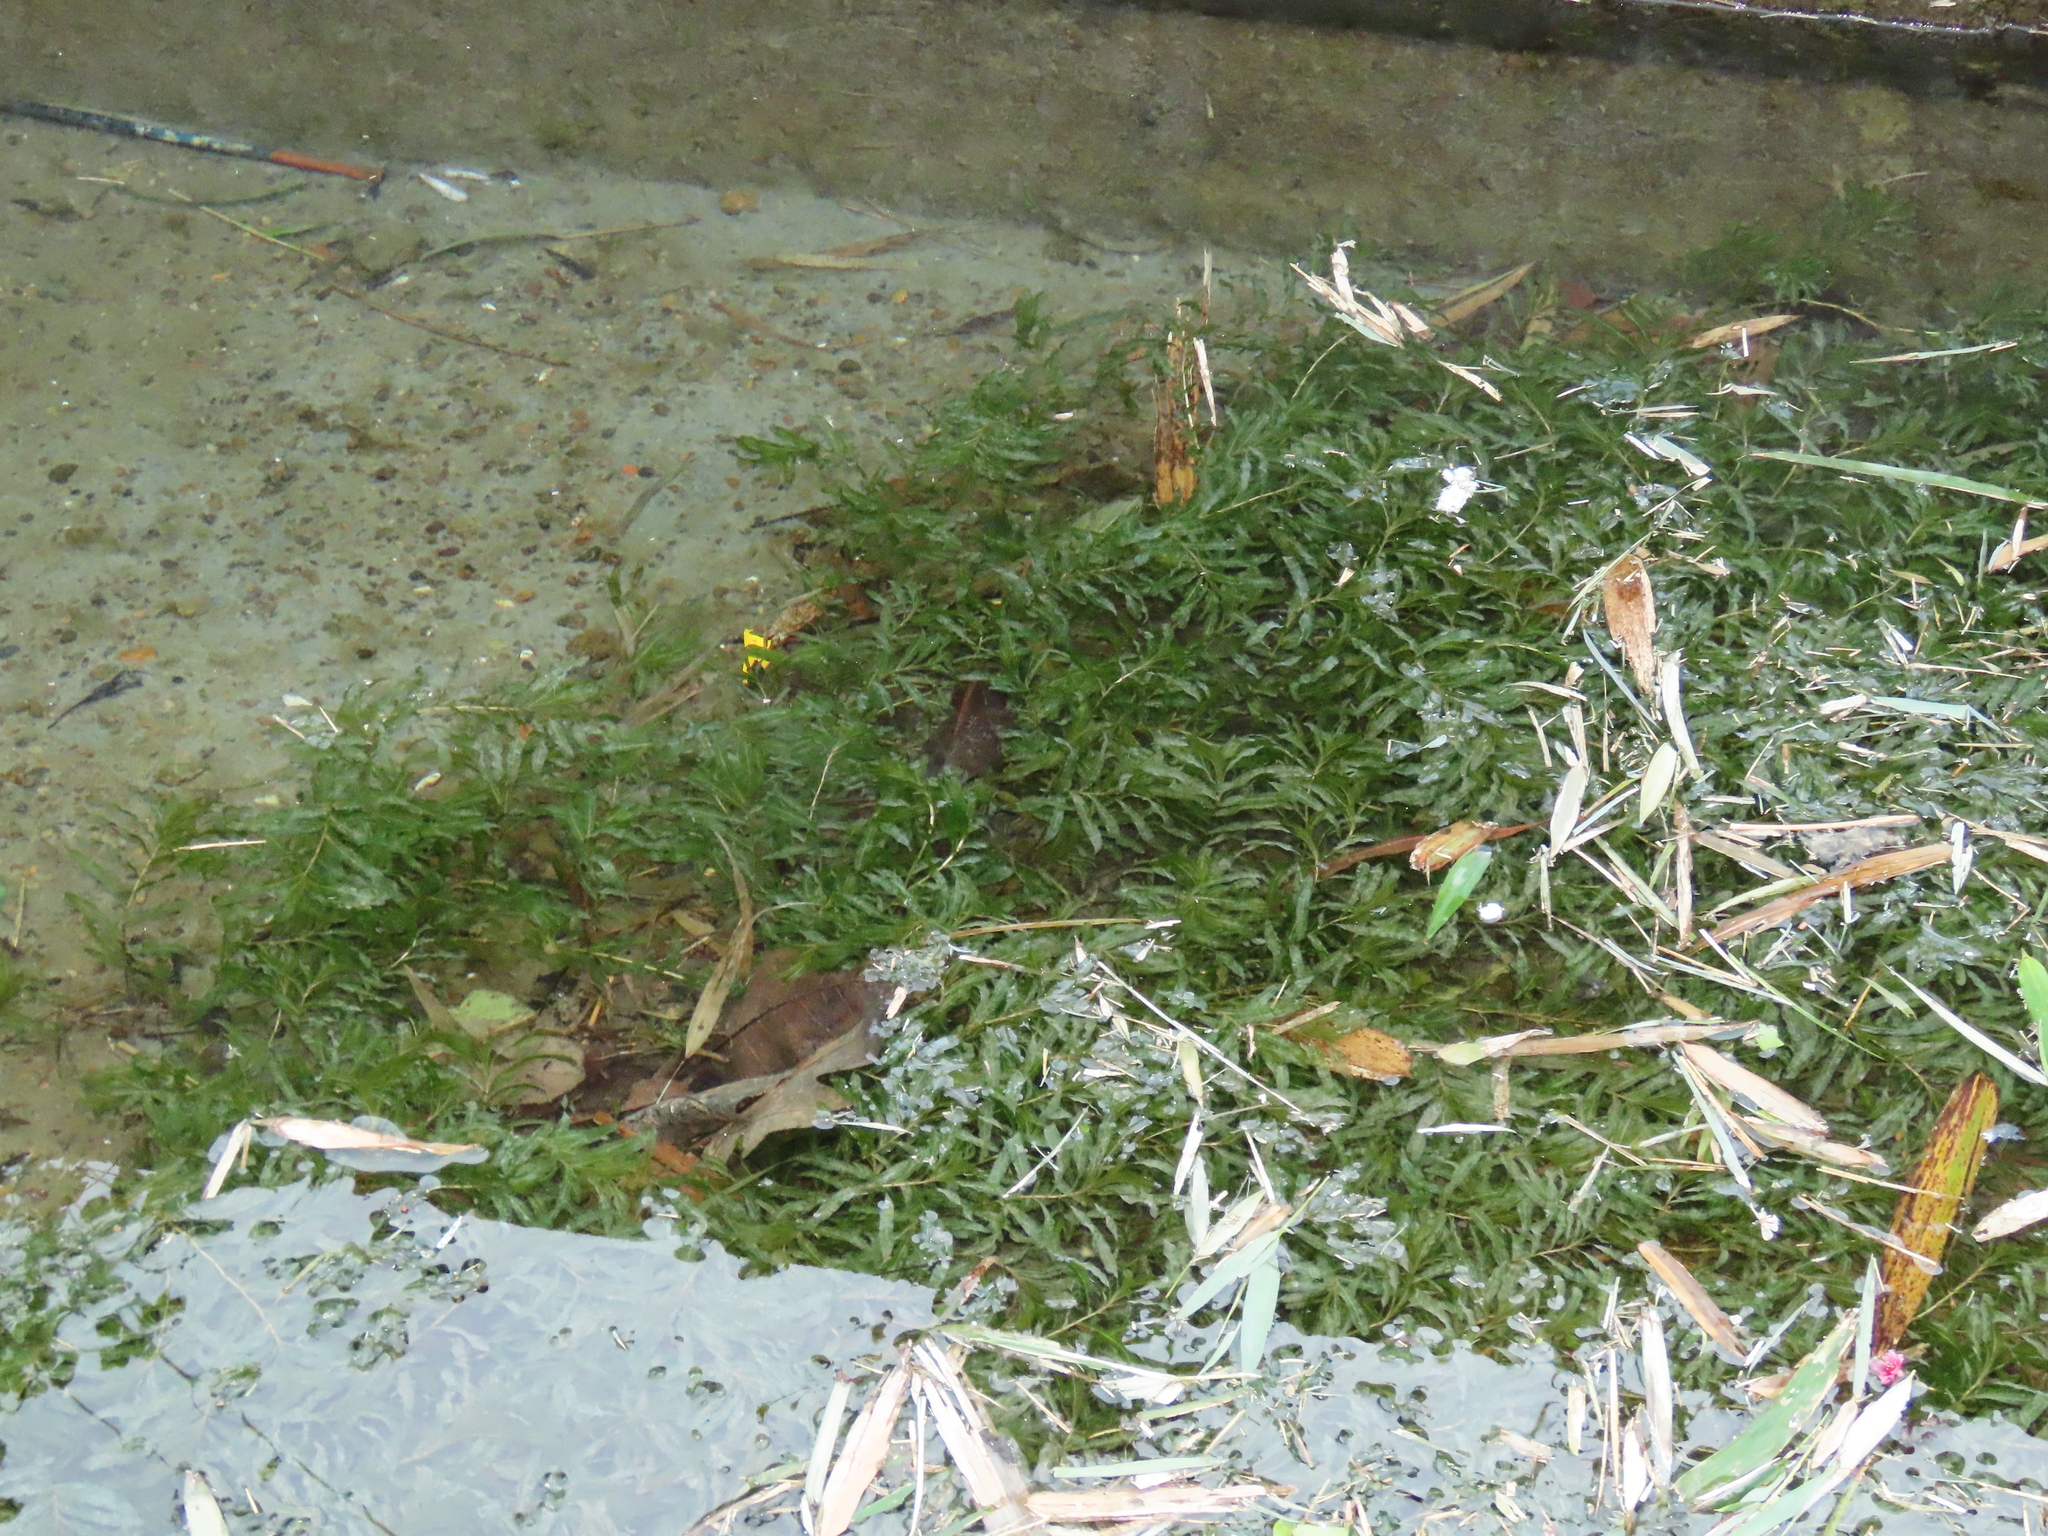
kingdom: Plantae
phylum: Tracheophyta
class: Liliopsida
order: Alismatales
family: Potamogetonaceae
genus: Potamogeton
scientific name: Potamogeton crispus
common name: Curled pondweed
